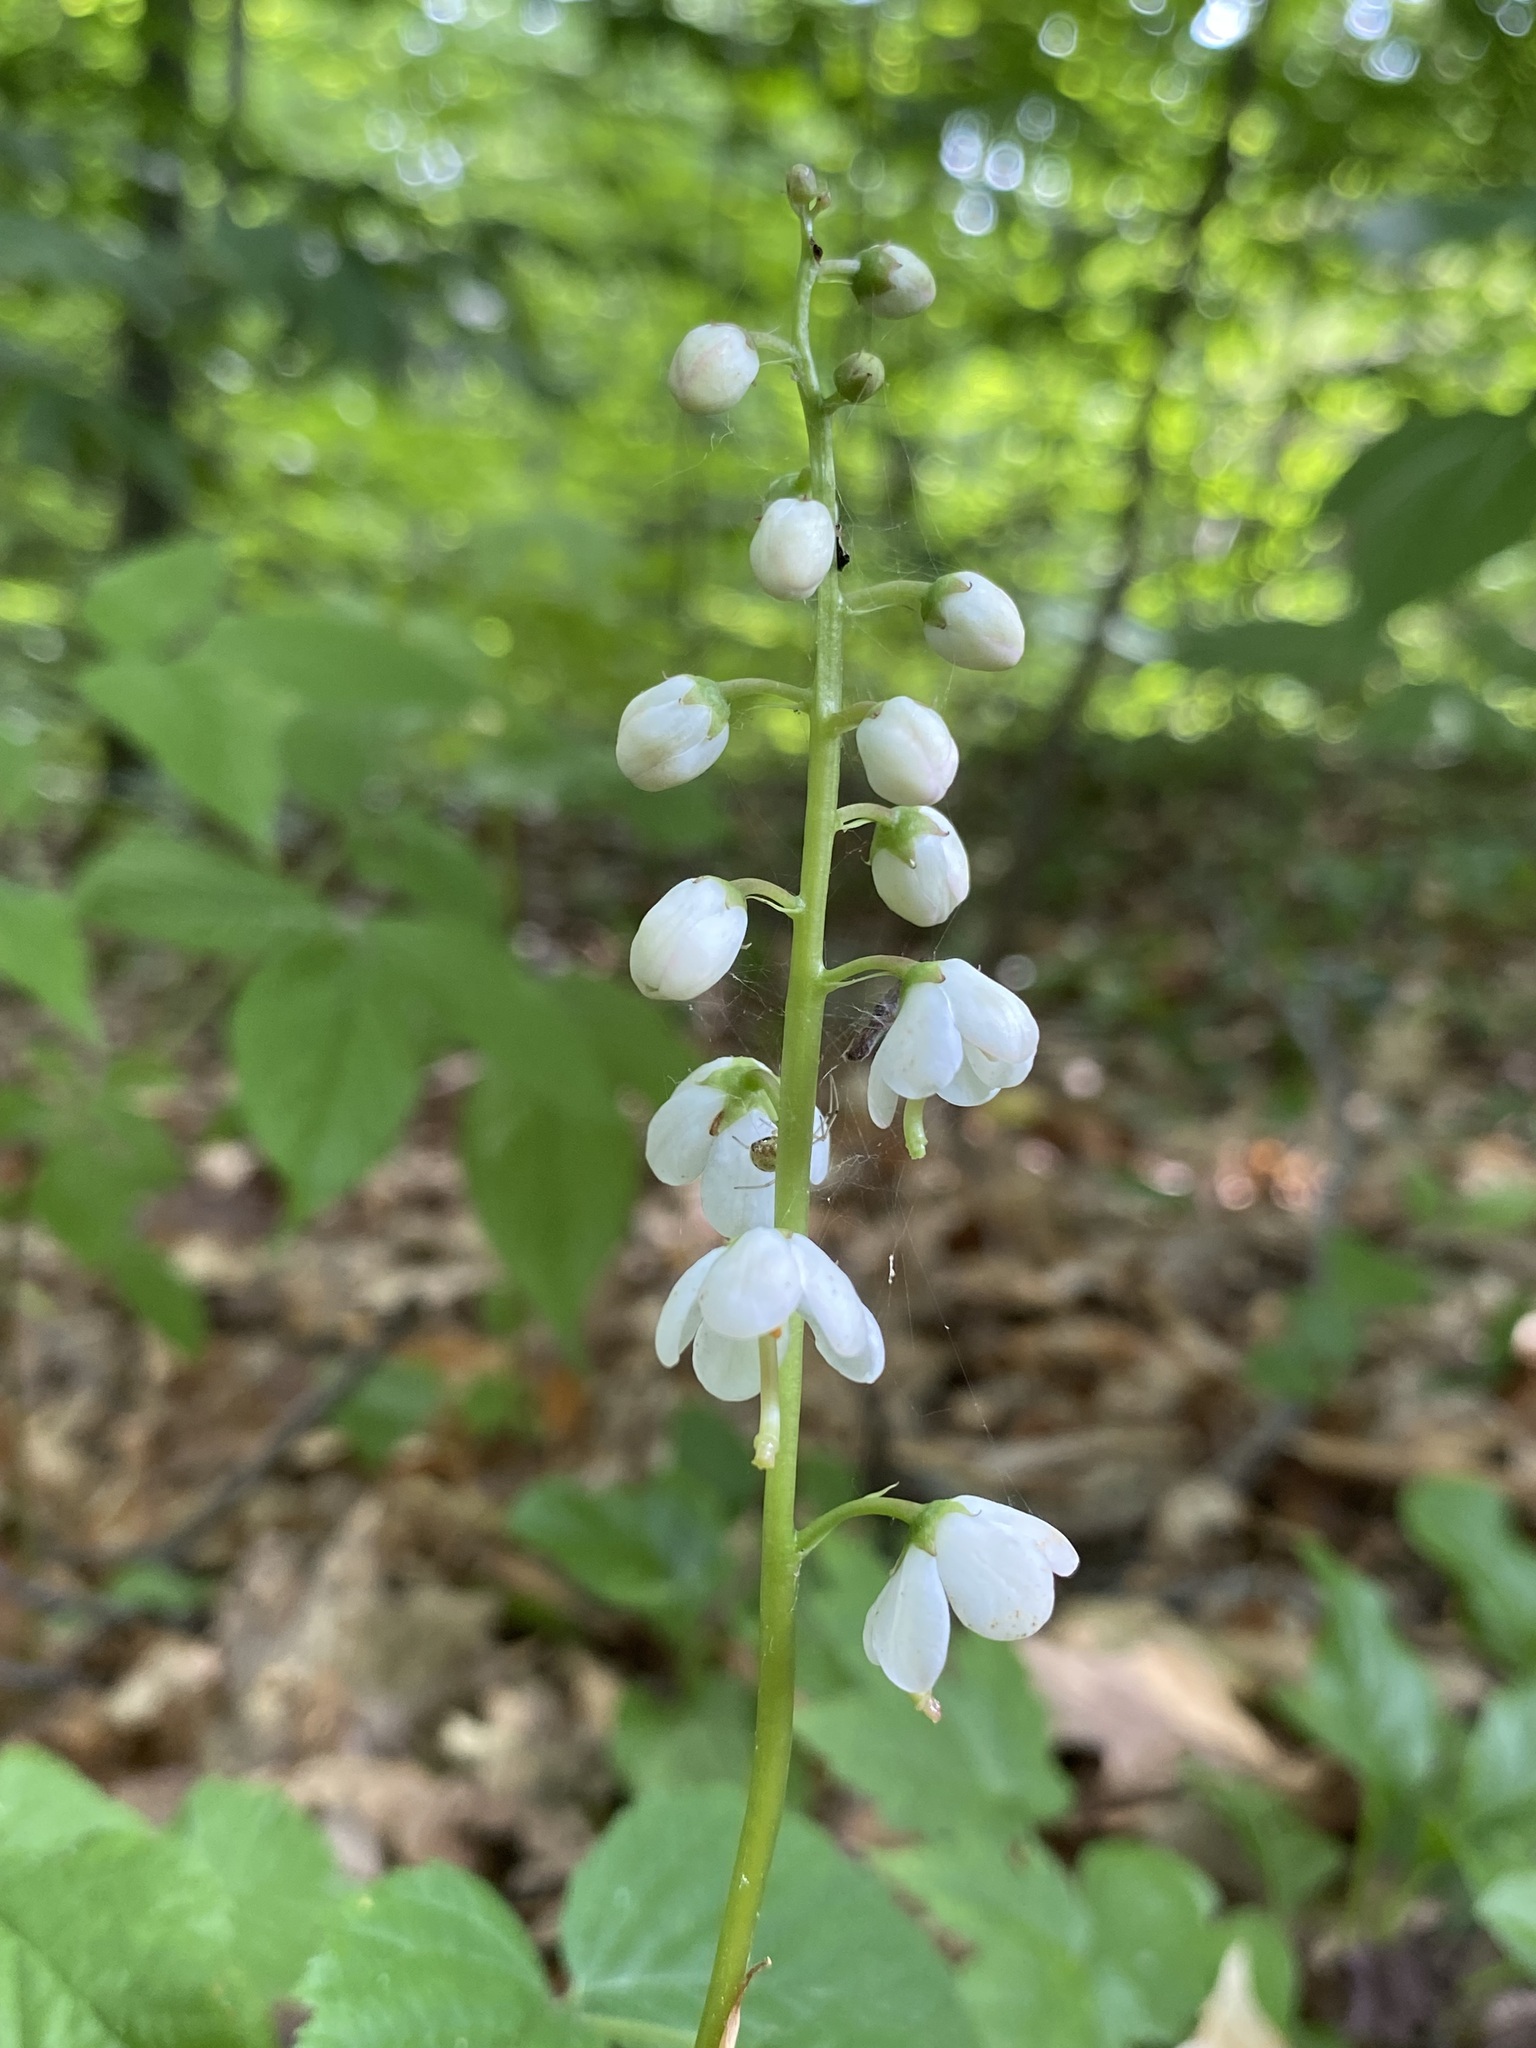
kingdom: Plantae
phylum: Tracheophyta
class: Magnoliopsida
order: Ericales
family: Ericaceae
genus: Pyrola
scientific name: Pyrola elliptica
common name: Shinleaf
